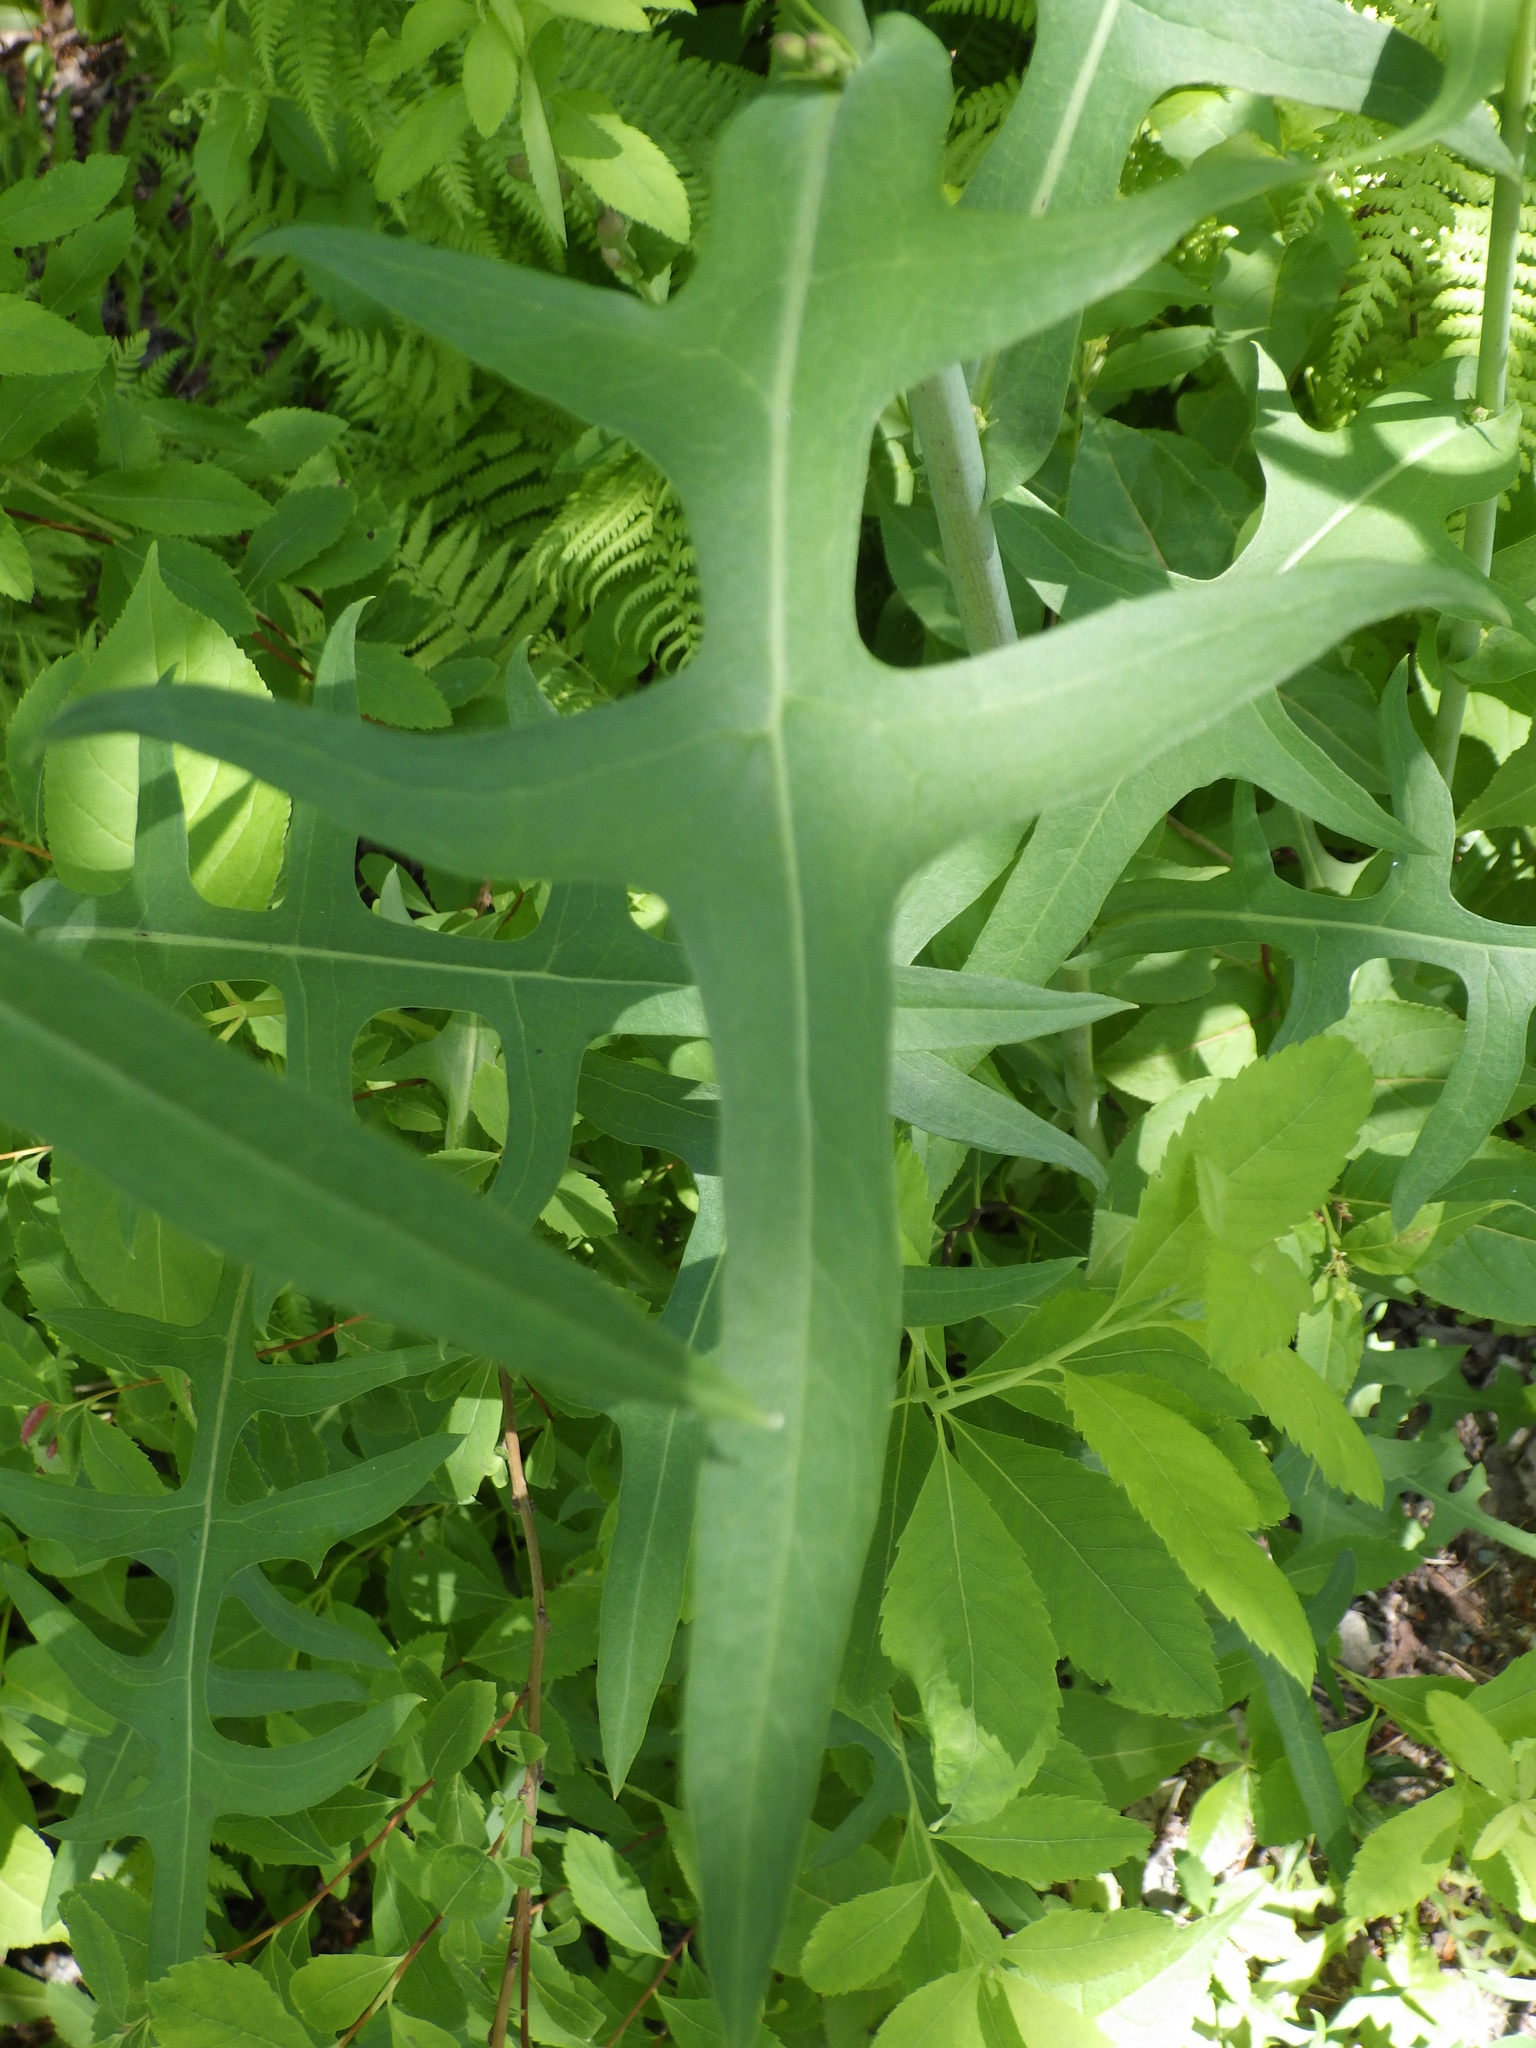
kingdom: Plantae
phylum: Tracheophyta
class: Magnoliopsida
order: Asterales
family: Asteraceae
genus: Lactuca
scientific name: Lactuca canadensis
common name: Canada lettuce
